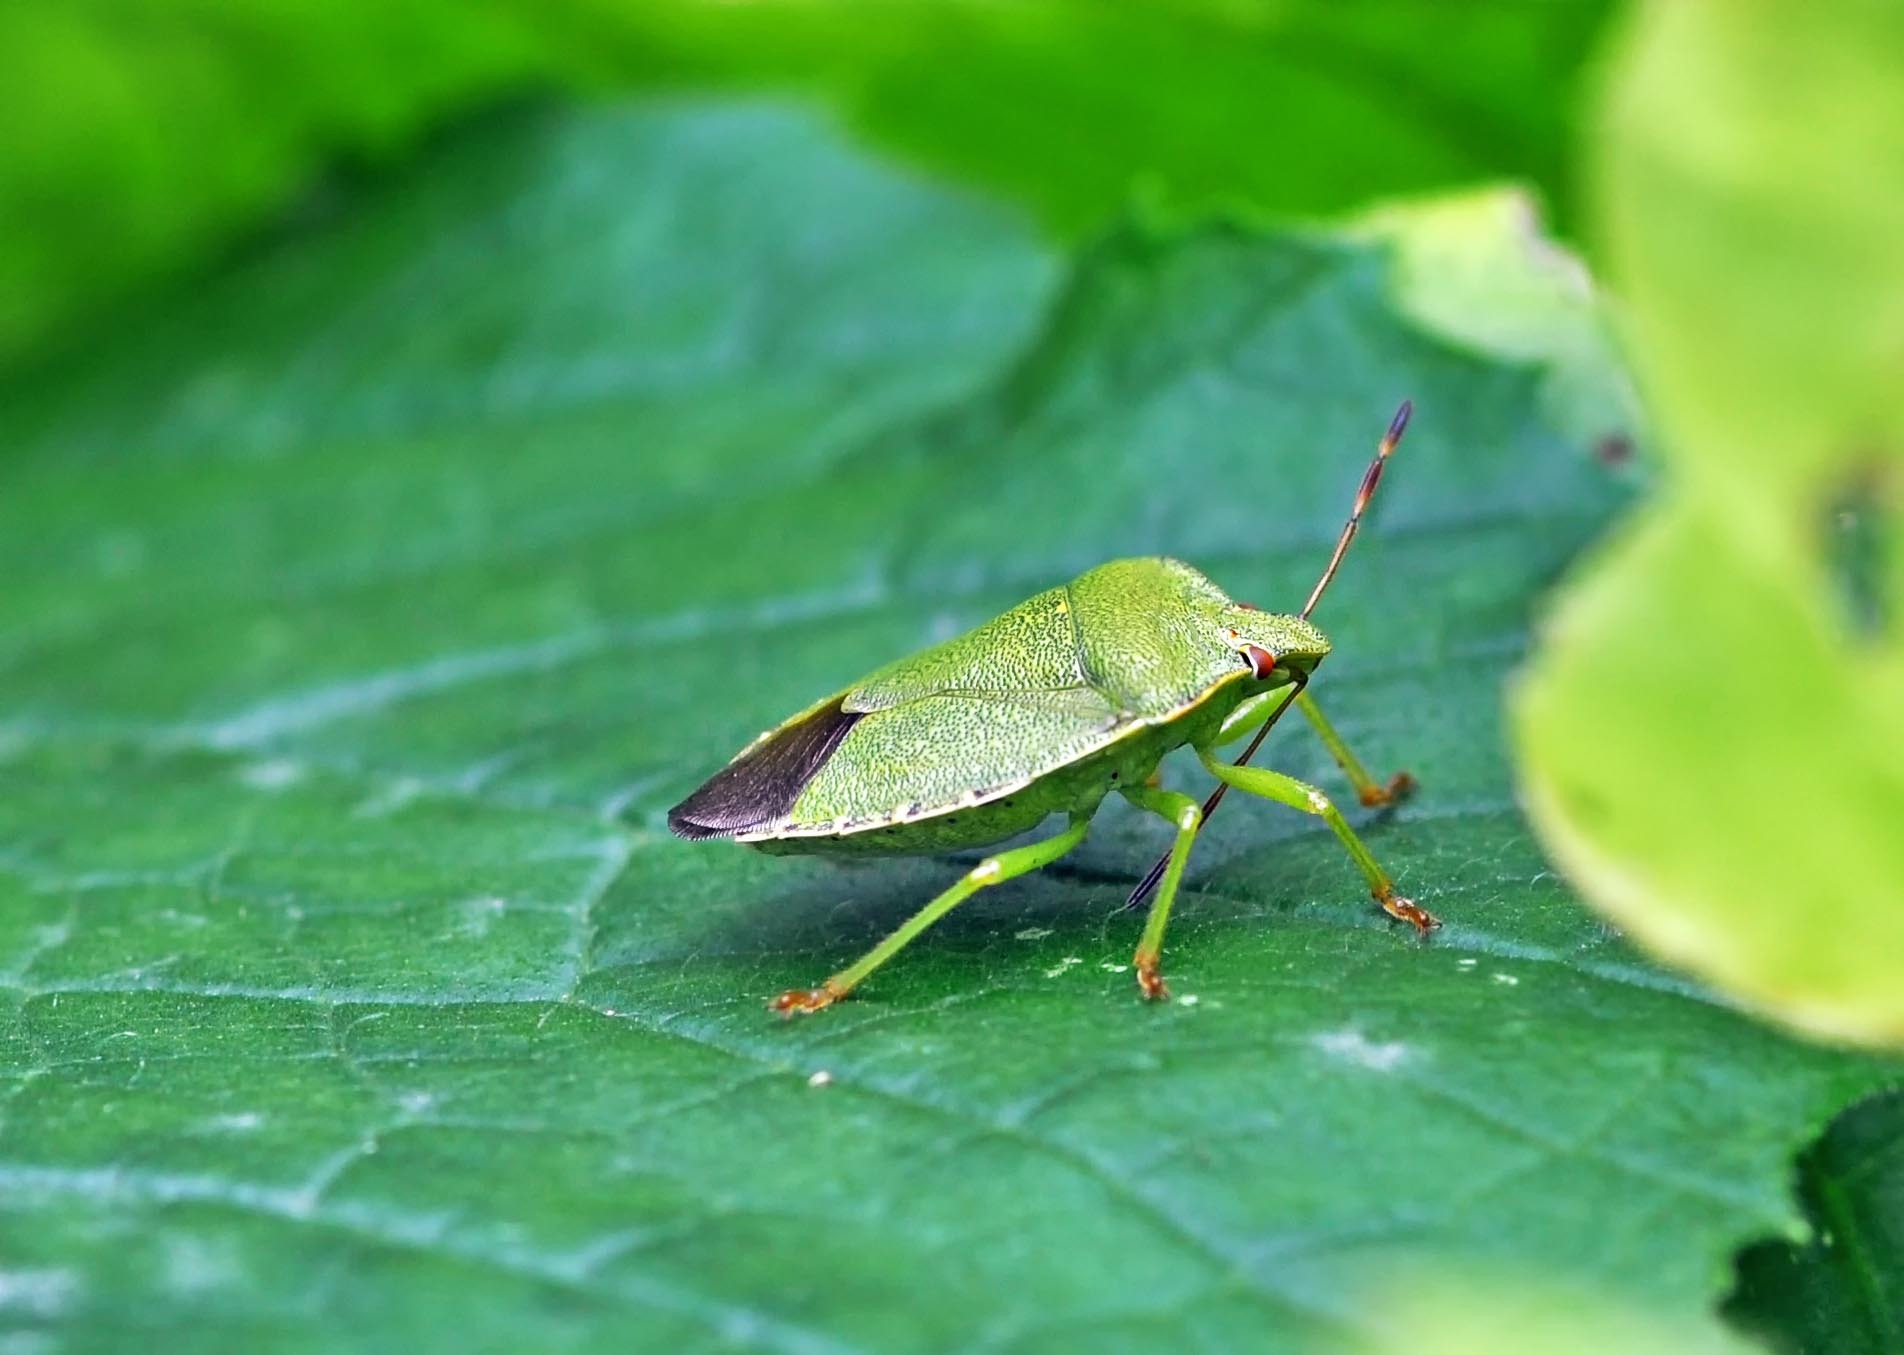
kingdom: Animalia
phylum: Arthropoda
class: Insecta
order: Hemiptera
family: Pentatomidae
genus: Palomena
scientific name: Palomena prasina
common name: Green shieldbug
